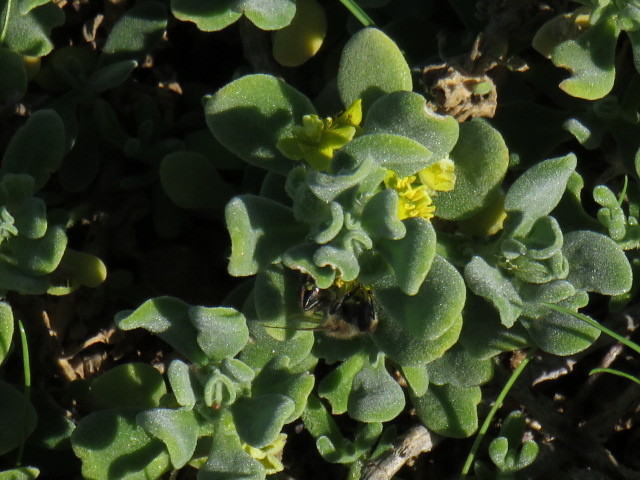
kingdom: Animalia
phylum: Arthropoda
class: Insecta
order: Hymenoptera
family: Apidae
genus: Apis
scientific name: Apis mellifera
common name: Honey bee
